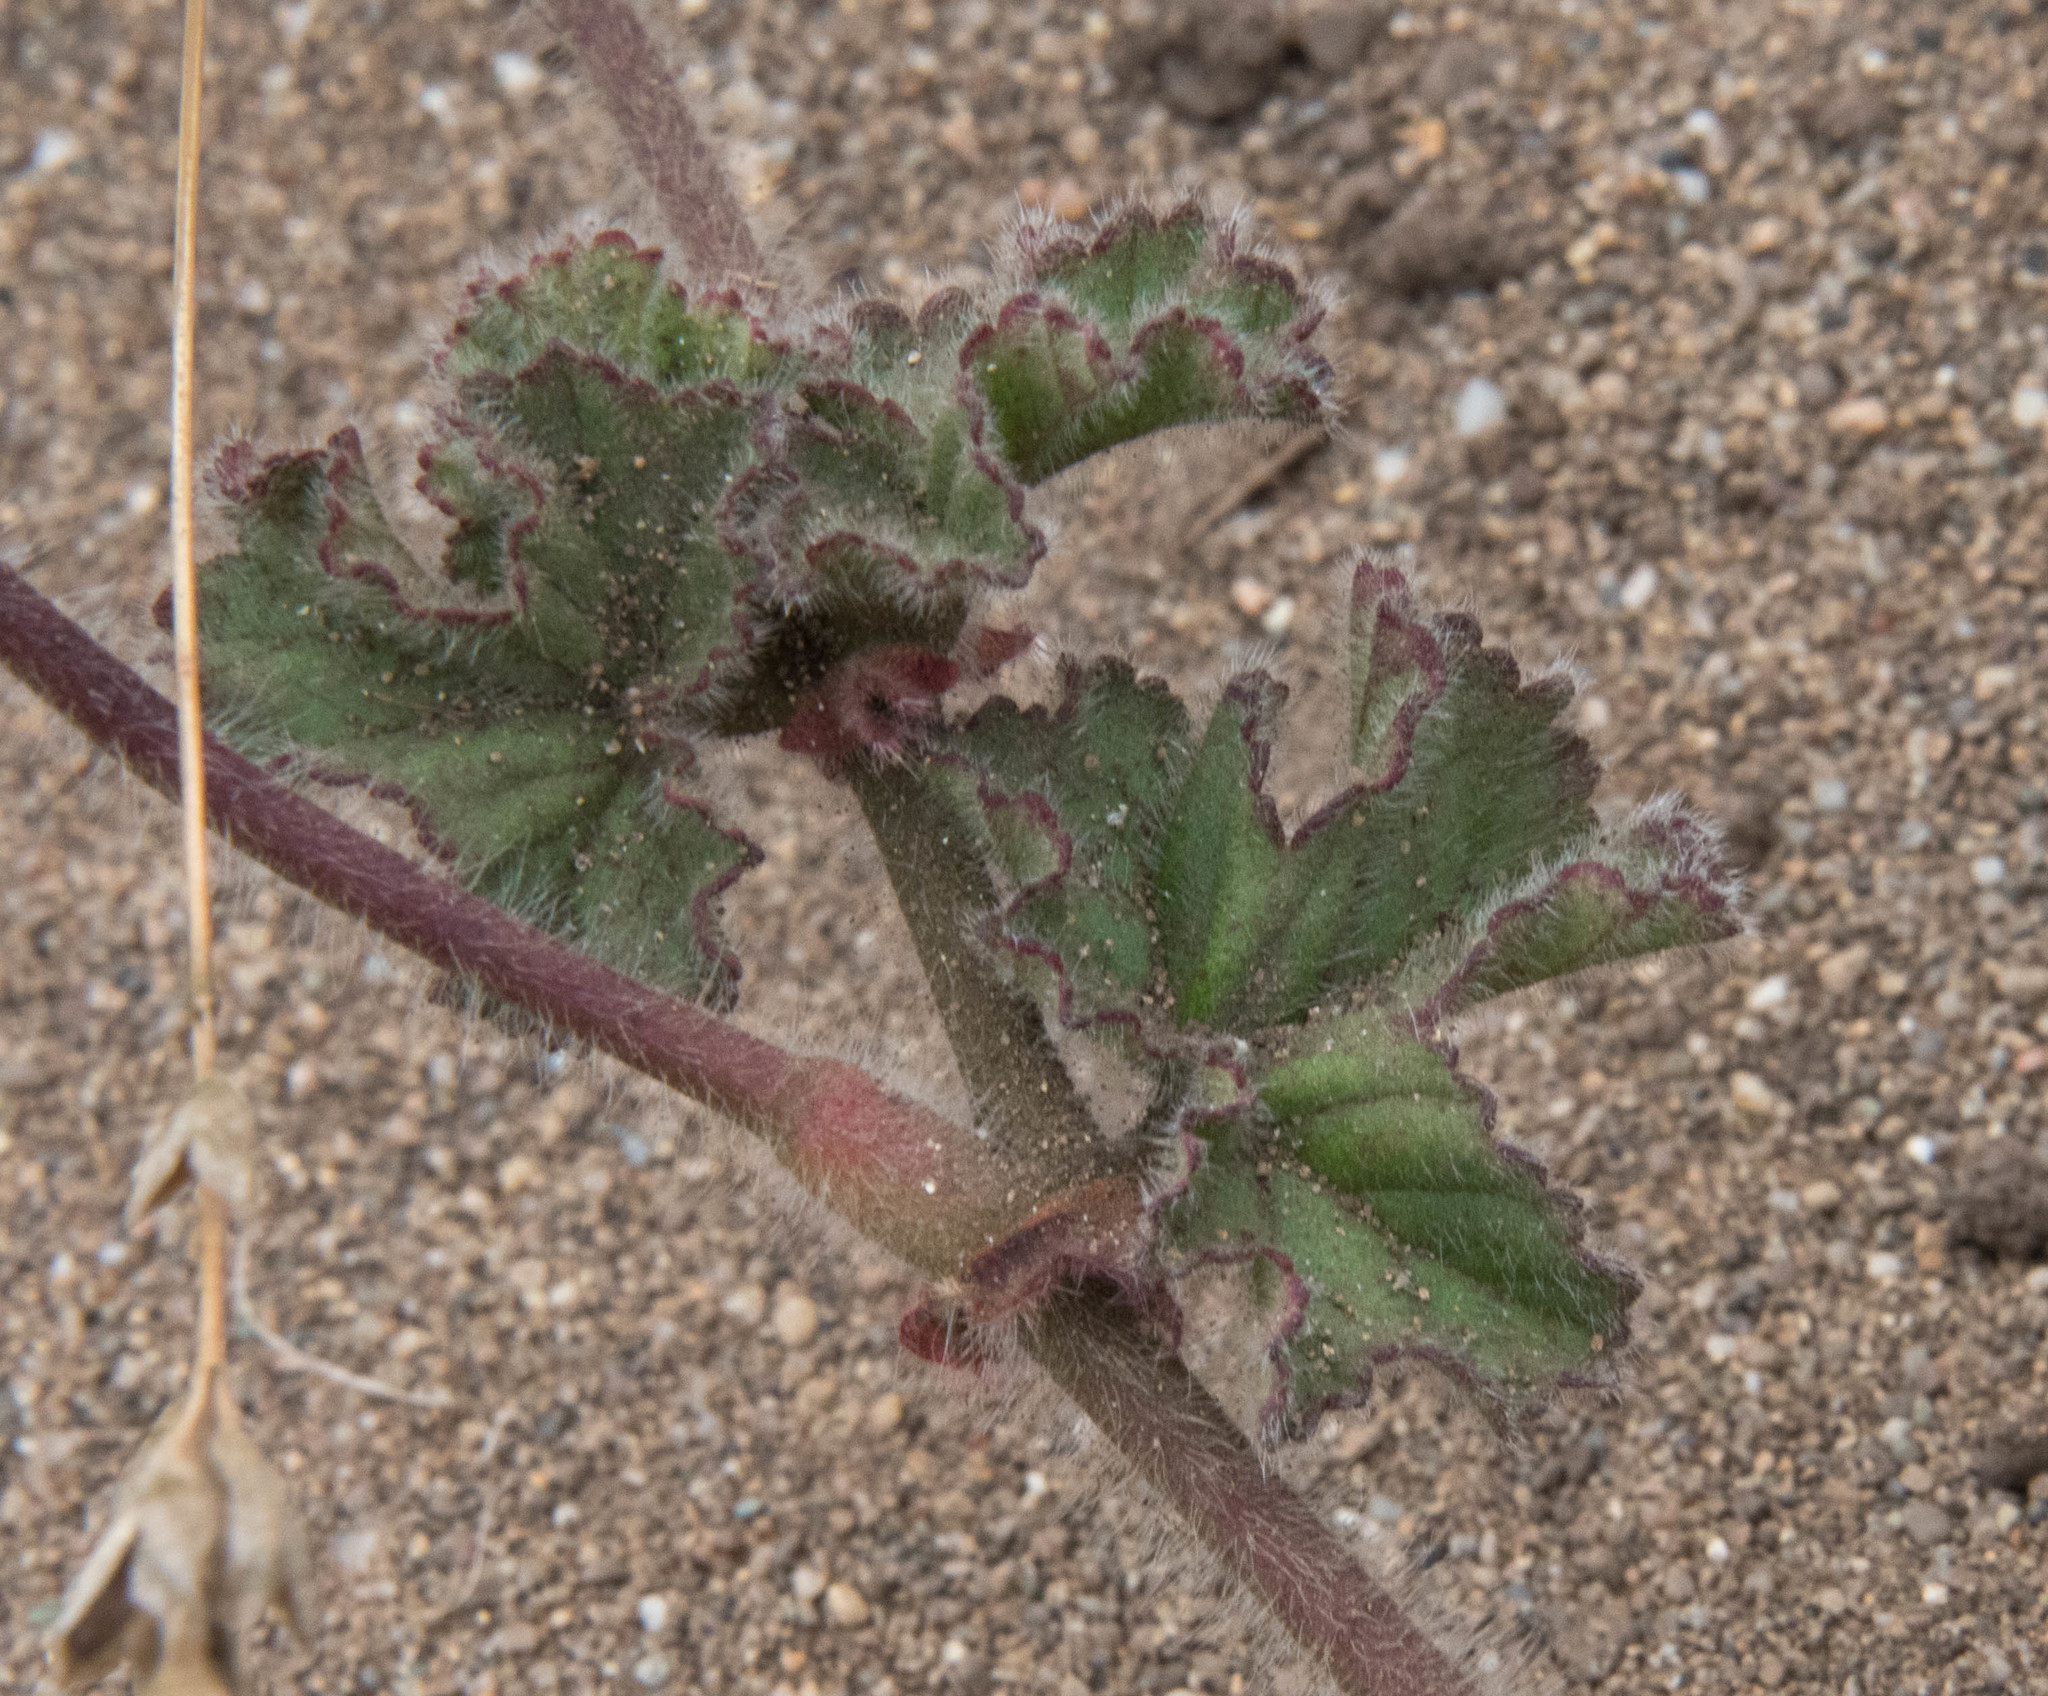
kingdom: Plantae
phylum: Tracheophyta
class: Magnoliopsida
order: Geraniales
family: Geraniaceae
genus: Pelargonium
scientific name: Pelargonium capitatum
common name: Rose scented geranium
